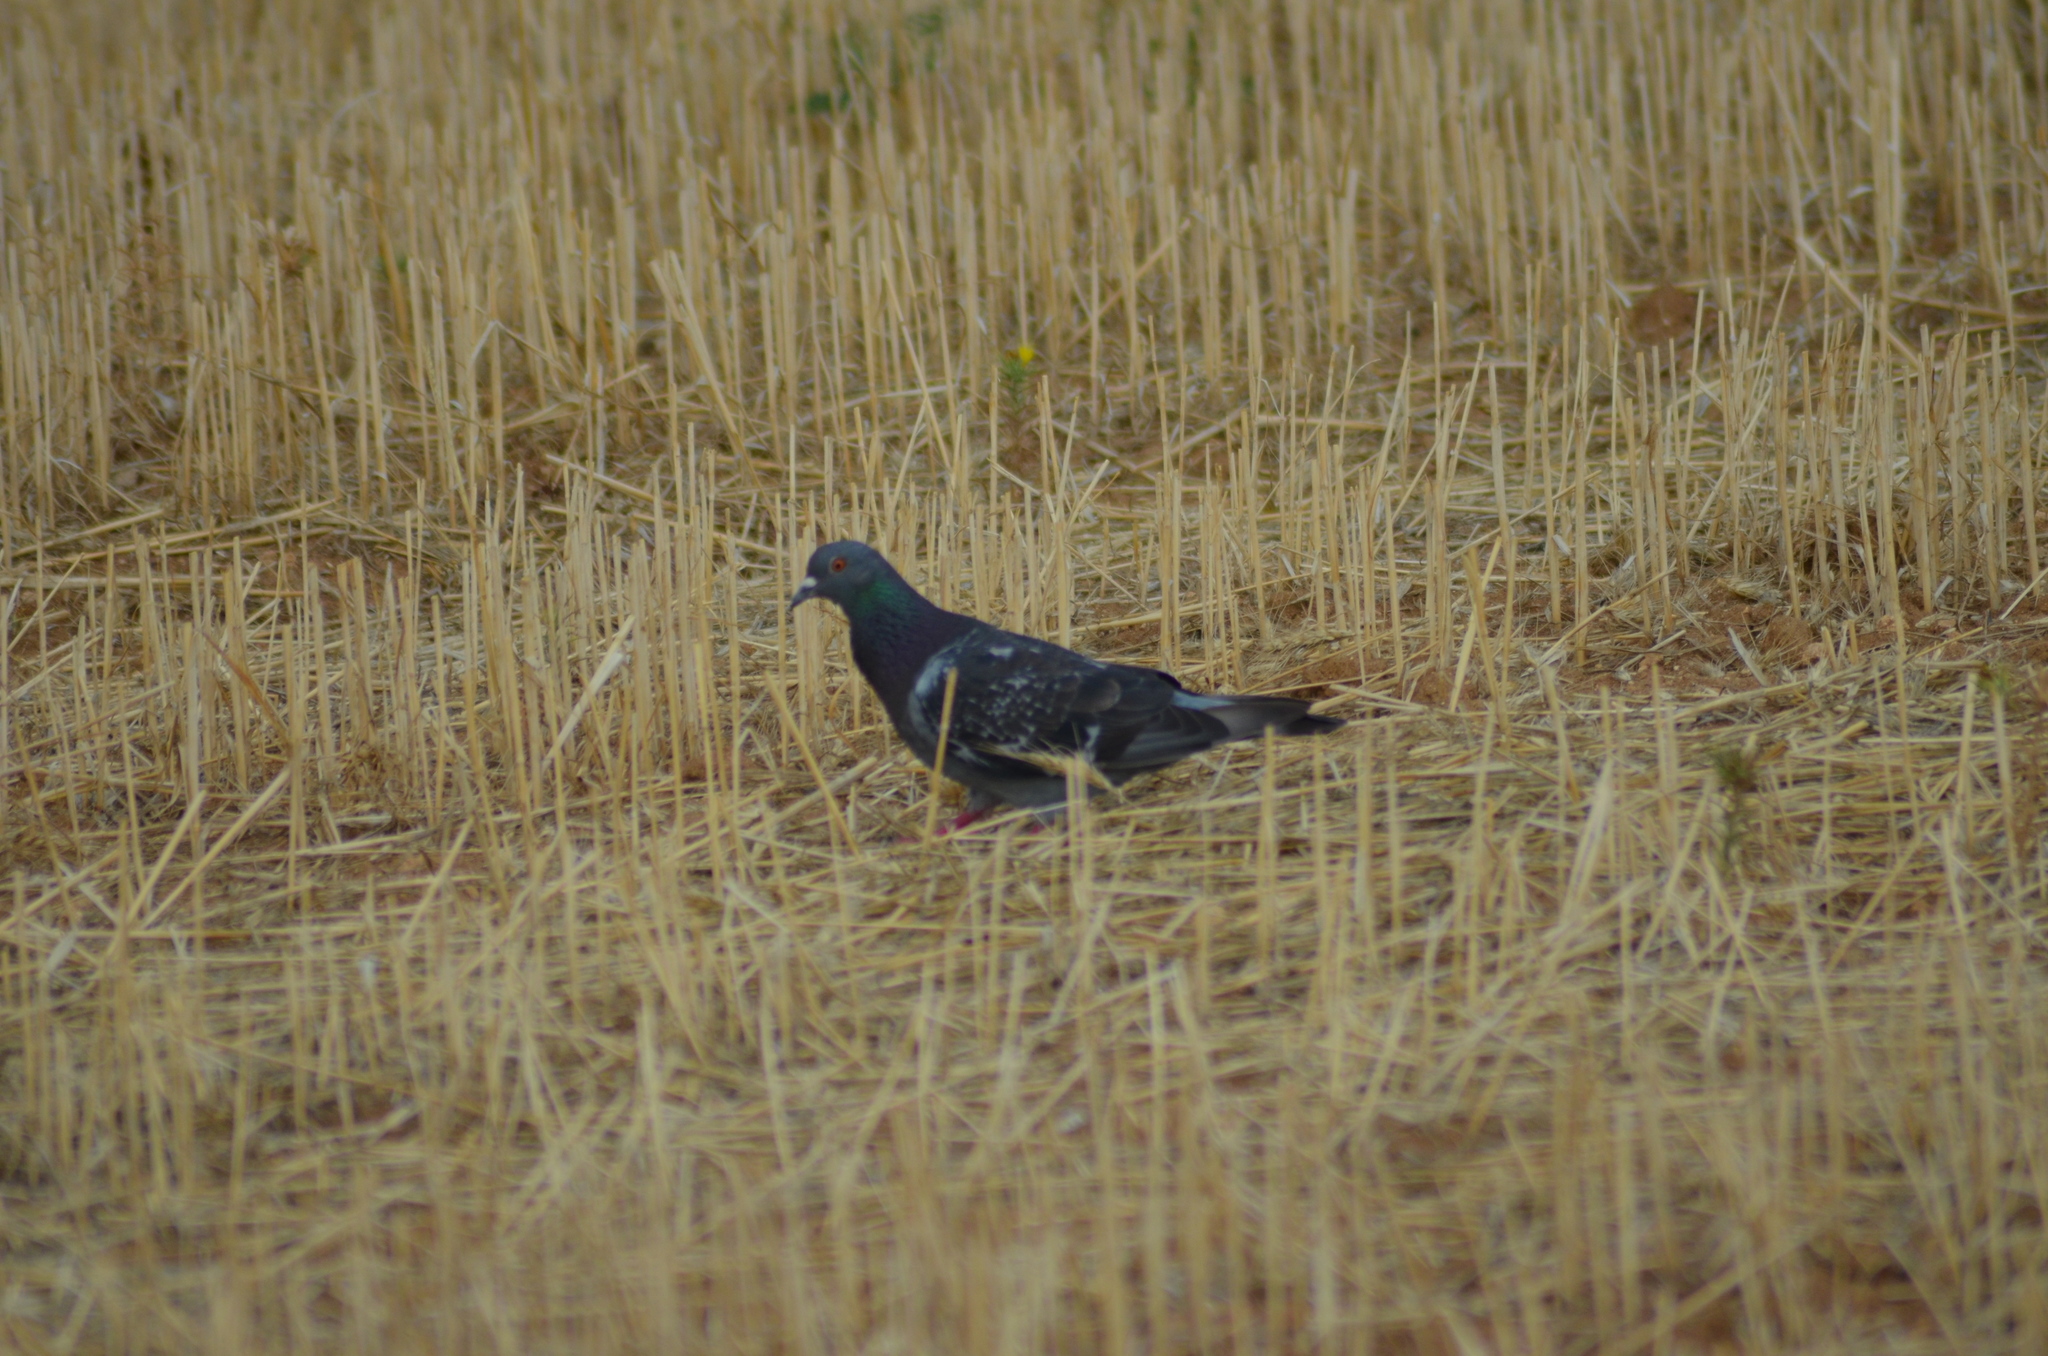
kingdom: Animalia
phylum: Chordata
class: Aves
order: Columbiformes
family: Columbidae
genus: Columba
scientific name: Columba livia
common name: Rock pigeon
